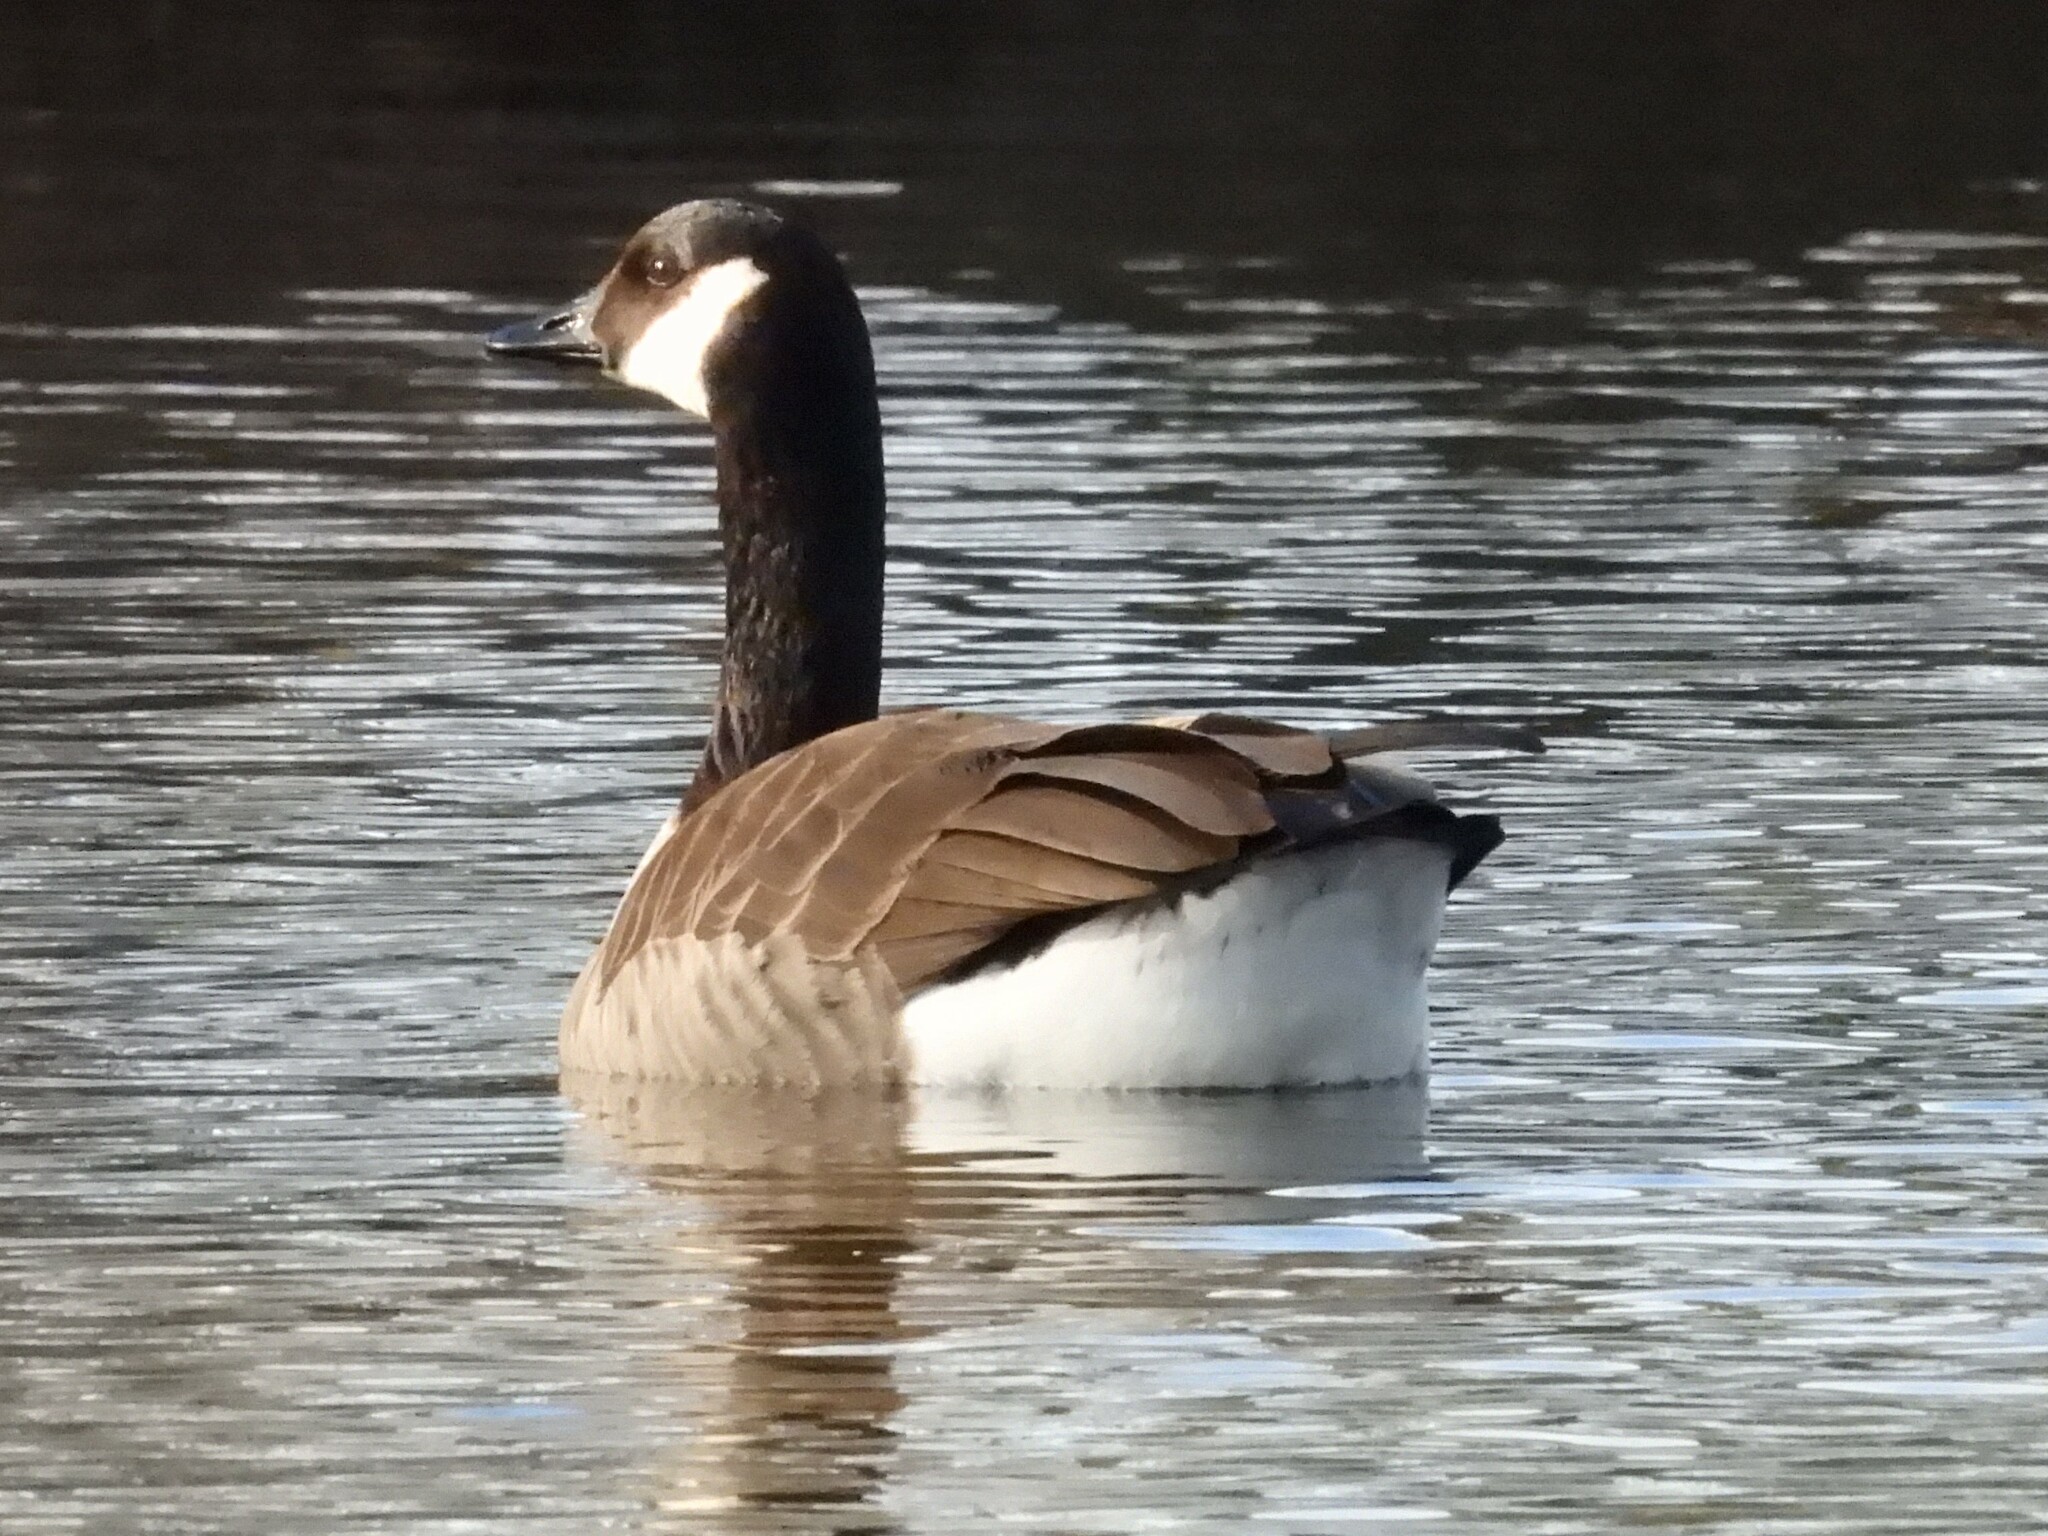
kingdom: Animalia
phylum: Chordata
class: Aves
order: Anseriformes
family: Anatidae
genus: Branta
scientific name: Branta canadensis
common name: Canada goose
